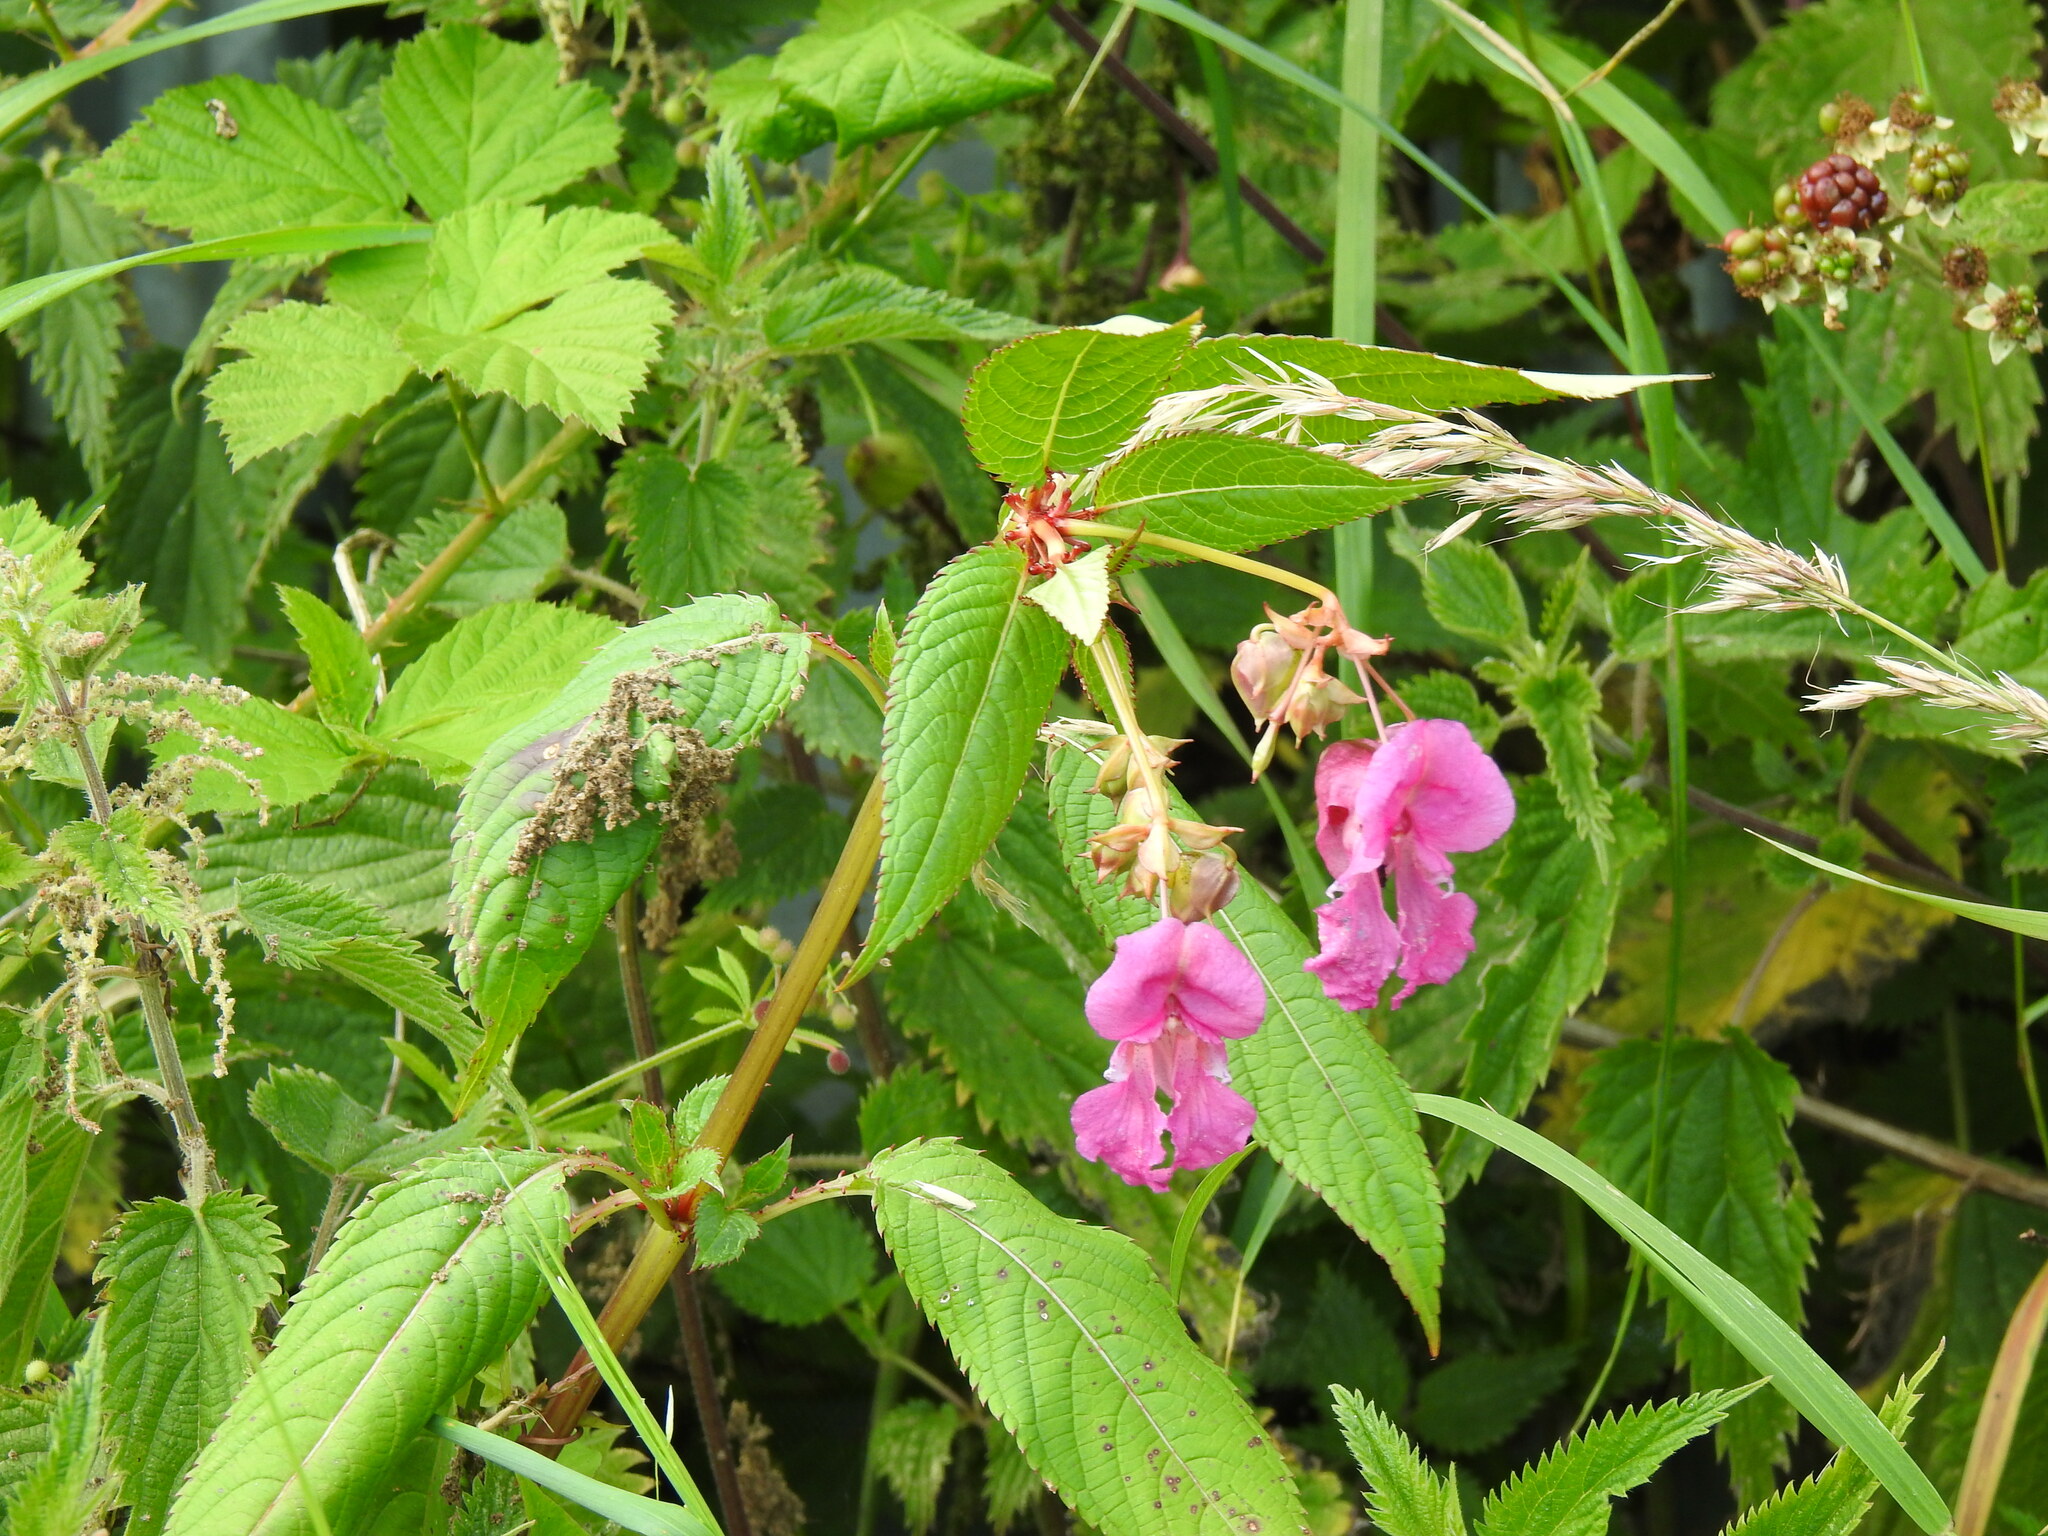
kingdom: Plantae
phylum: Tracheophyta
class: Magnoliopsida
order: Ericales
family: Balsaminaceae
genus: Impatiens
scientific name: Impatiens glandulifera
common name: Himalayan balsam
